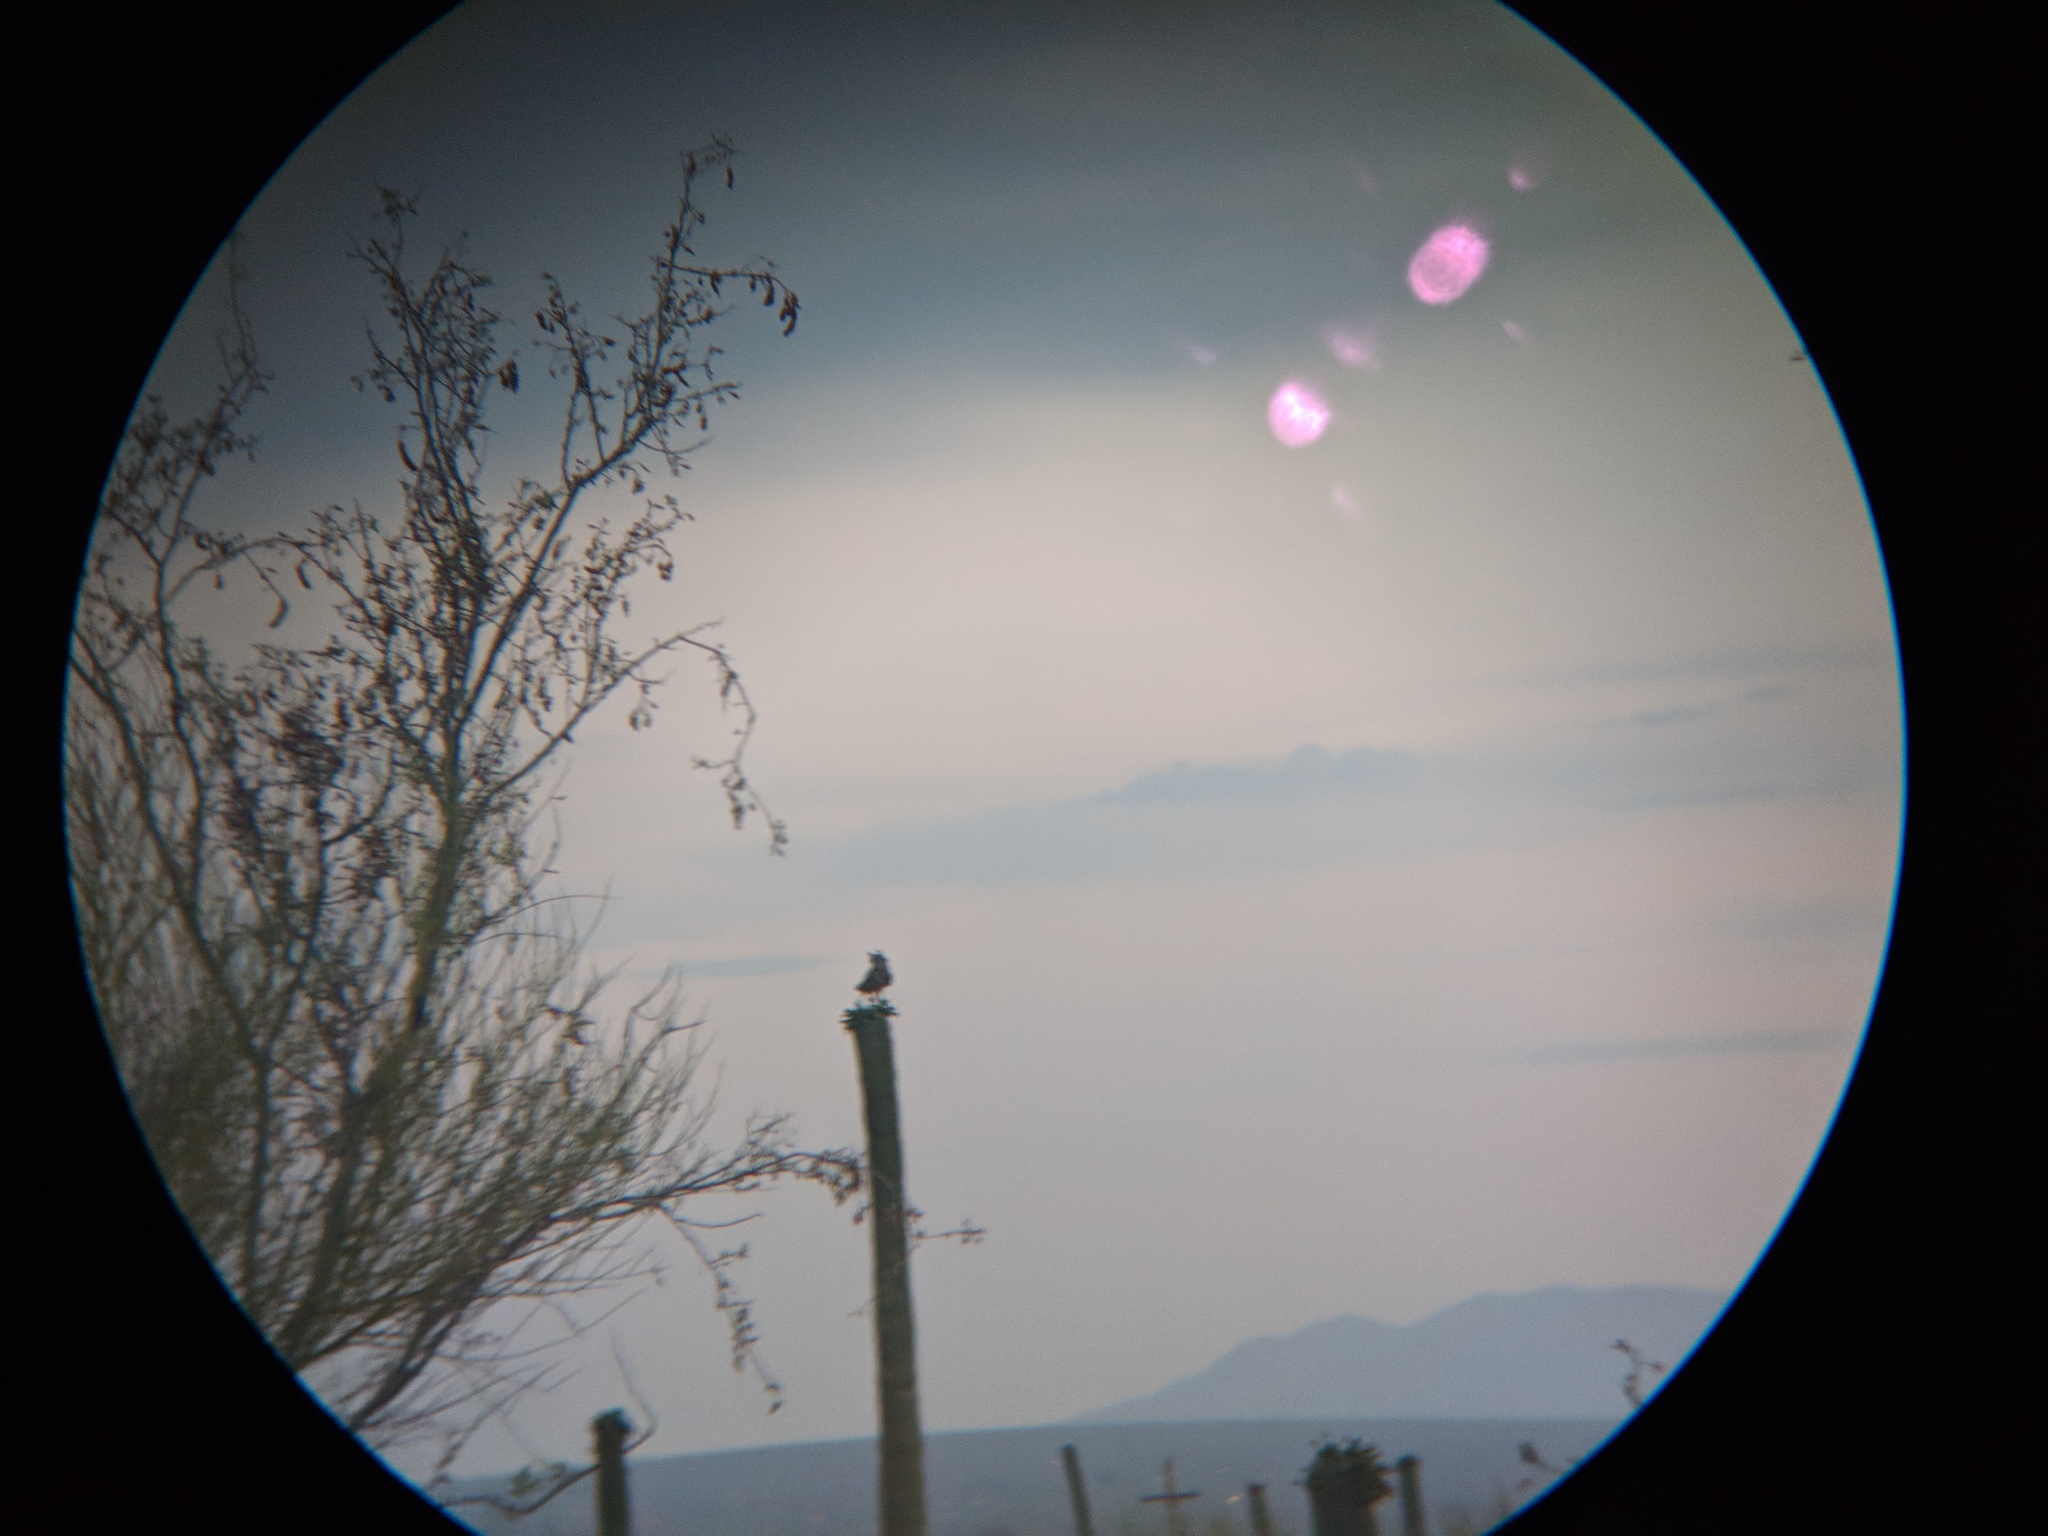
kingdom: Animalia
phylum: Chordata
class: Aves
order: Strigiformes
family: Strigidae
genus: Bubo
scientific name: Bubo virginianus
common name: Great horned owl
